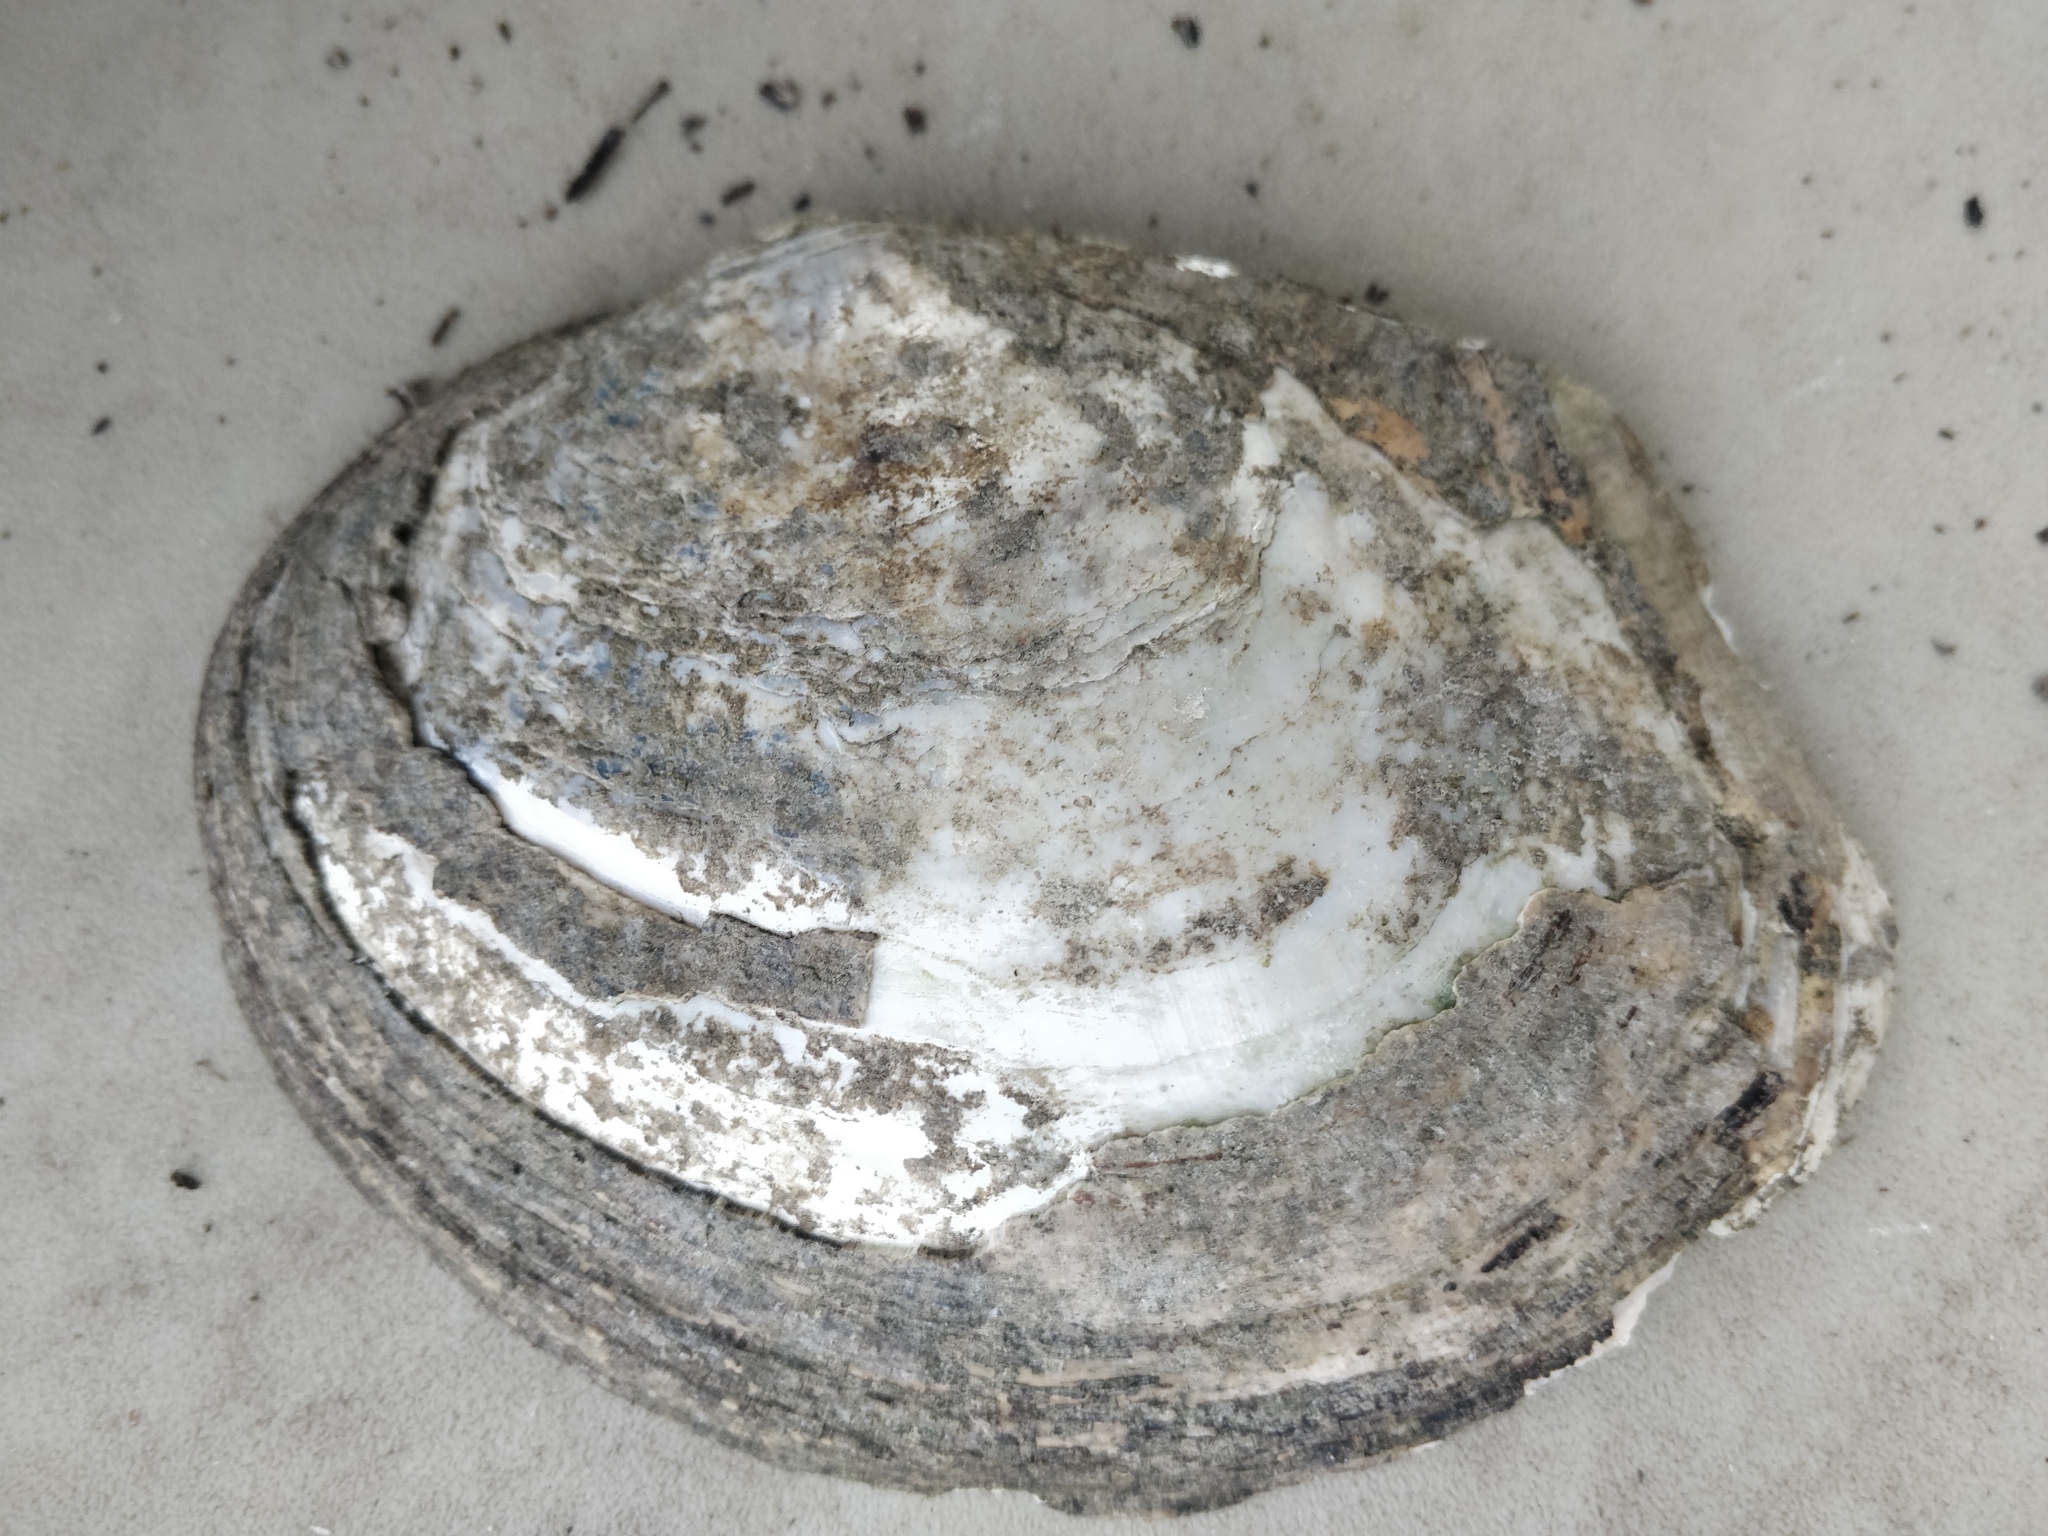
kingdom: Animalia
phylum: Mollusca
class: Bivalvia
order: Unionida
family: Unionidae
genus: Lasmigona
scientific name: Lasmigona complanata
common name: White heelsplitter
